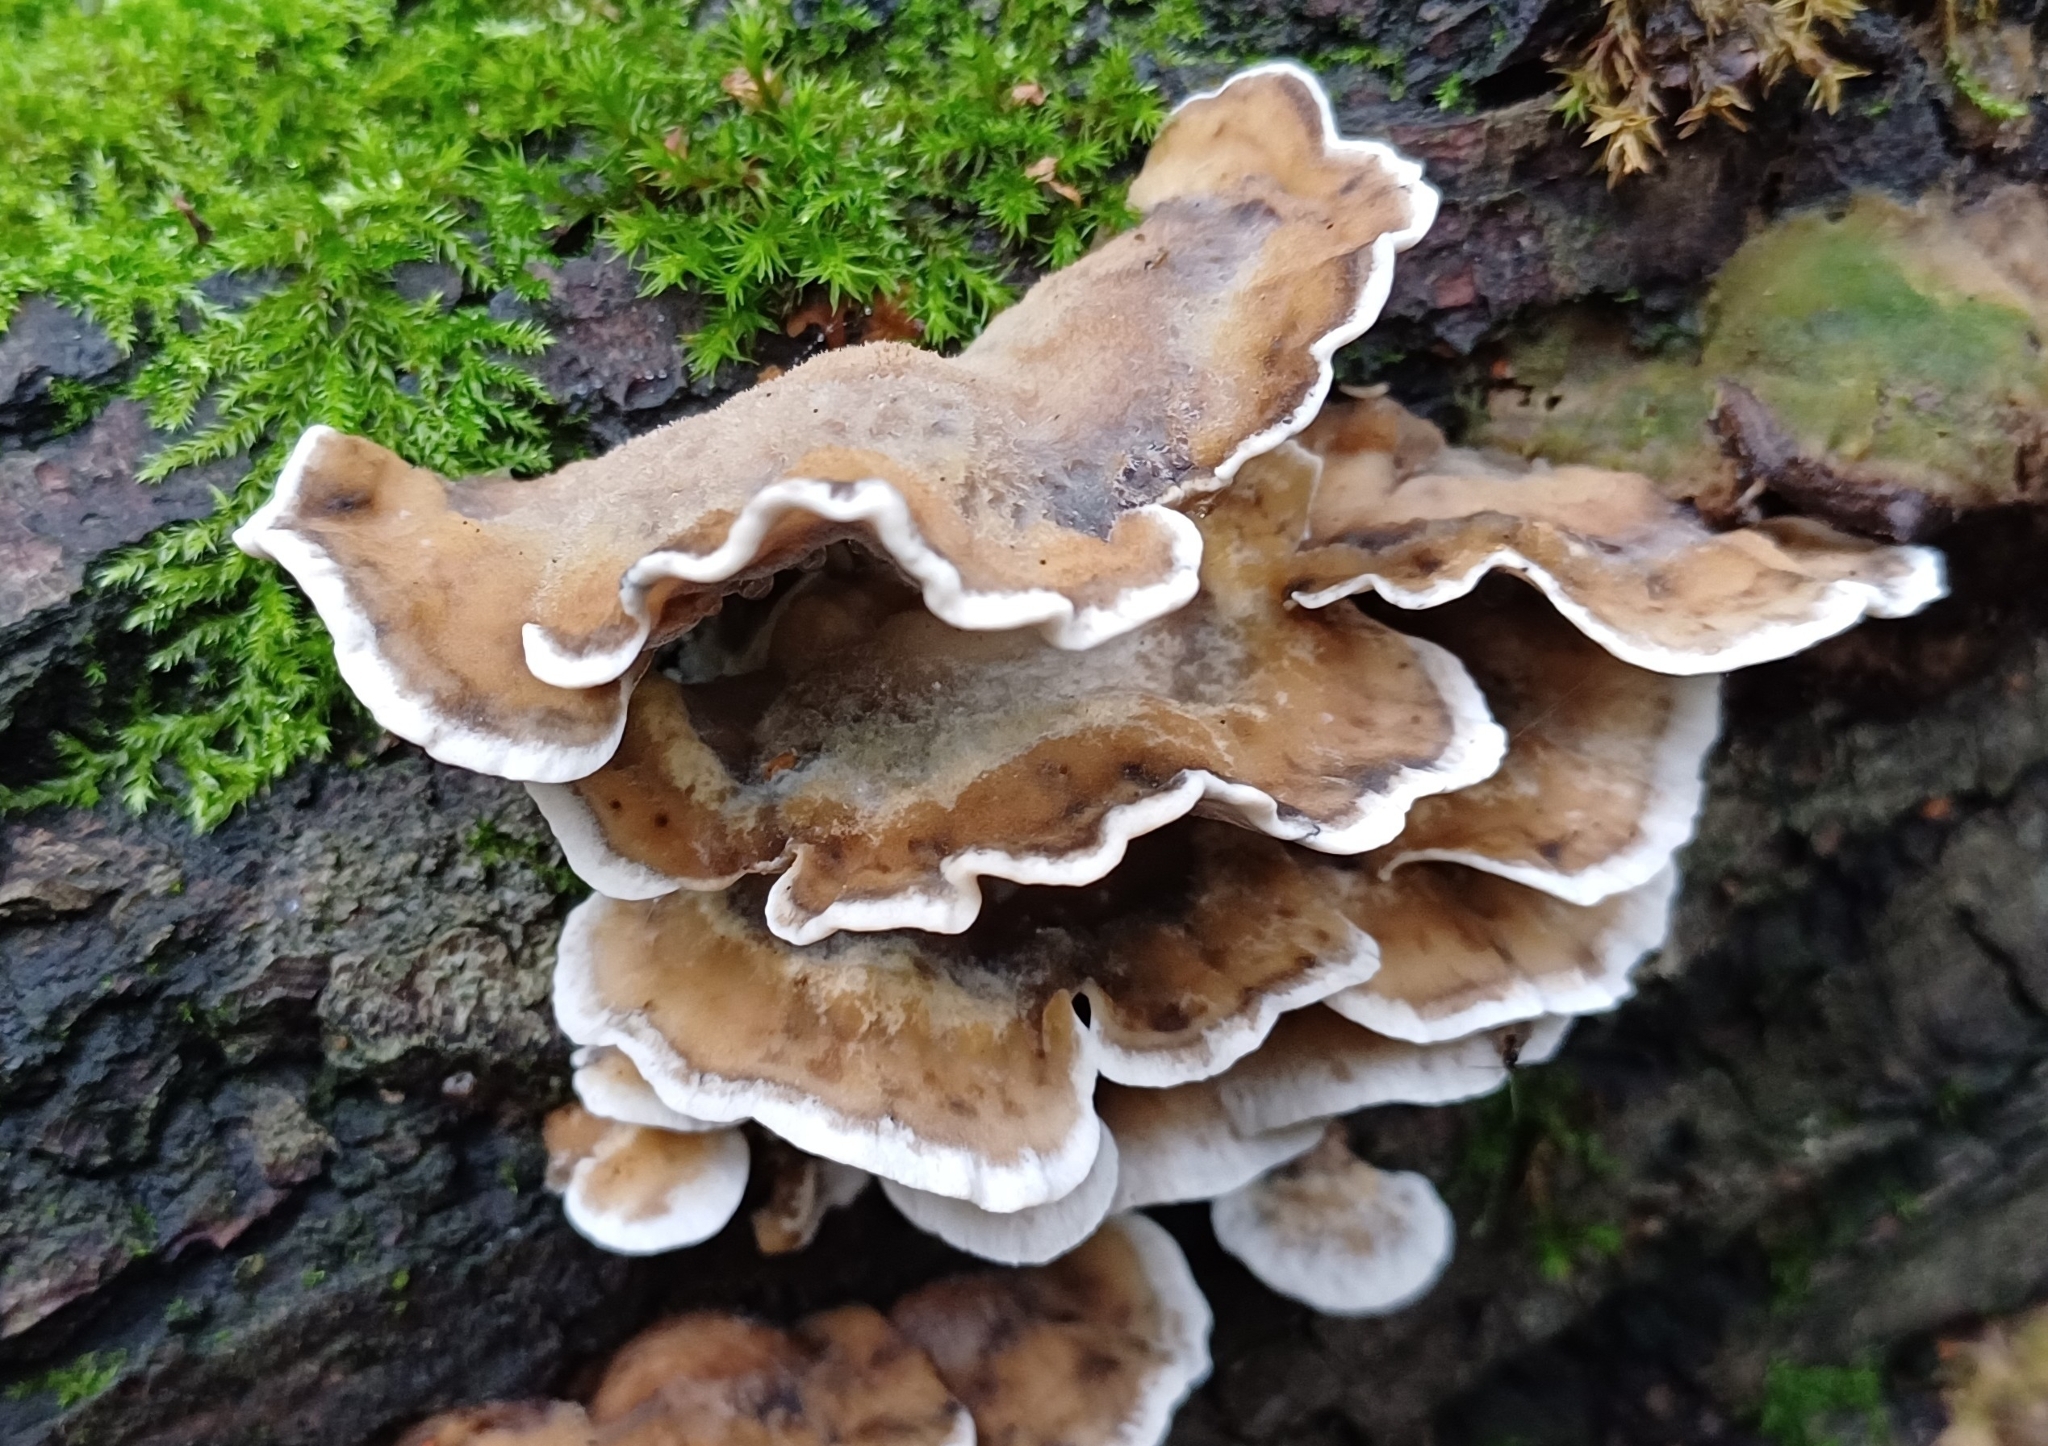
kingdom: Fungi
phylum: Basidiomycota
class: Agaricomycetes
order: Polyporales
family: Phanerochaetaceae
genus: Bjerkandera
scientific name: Bjerkandera adusta
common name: Smoky bracket
